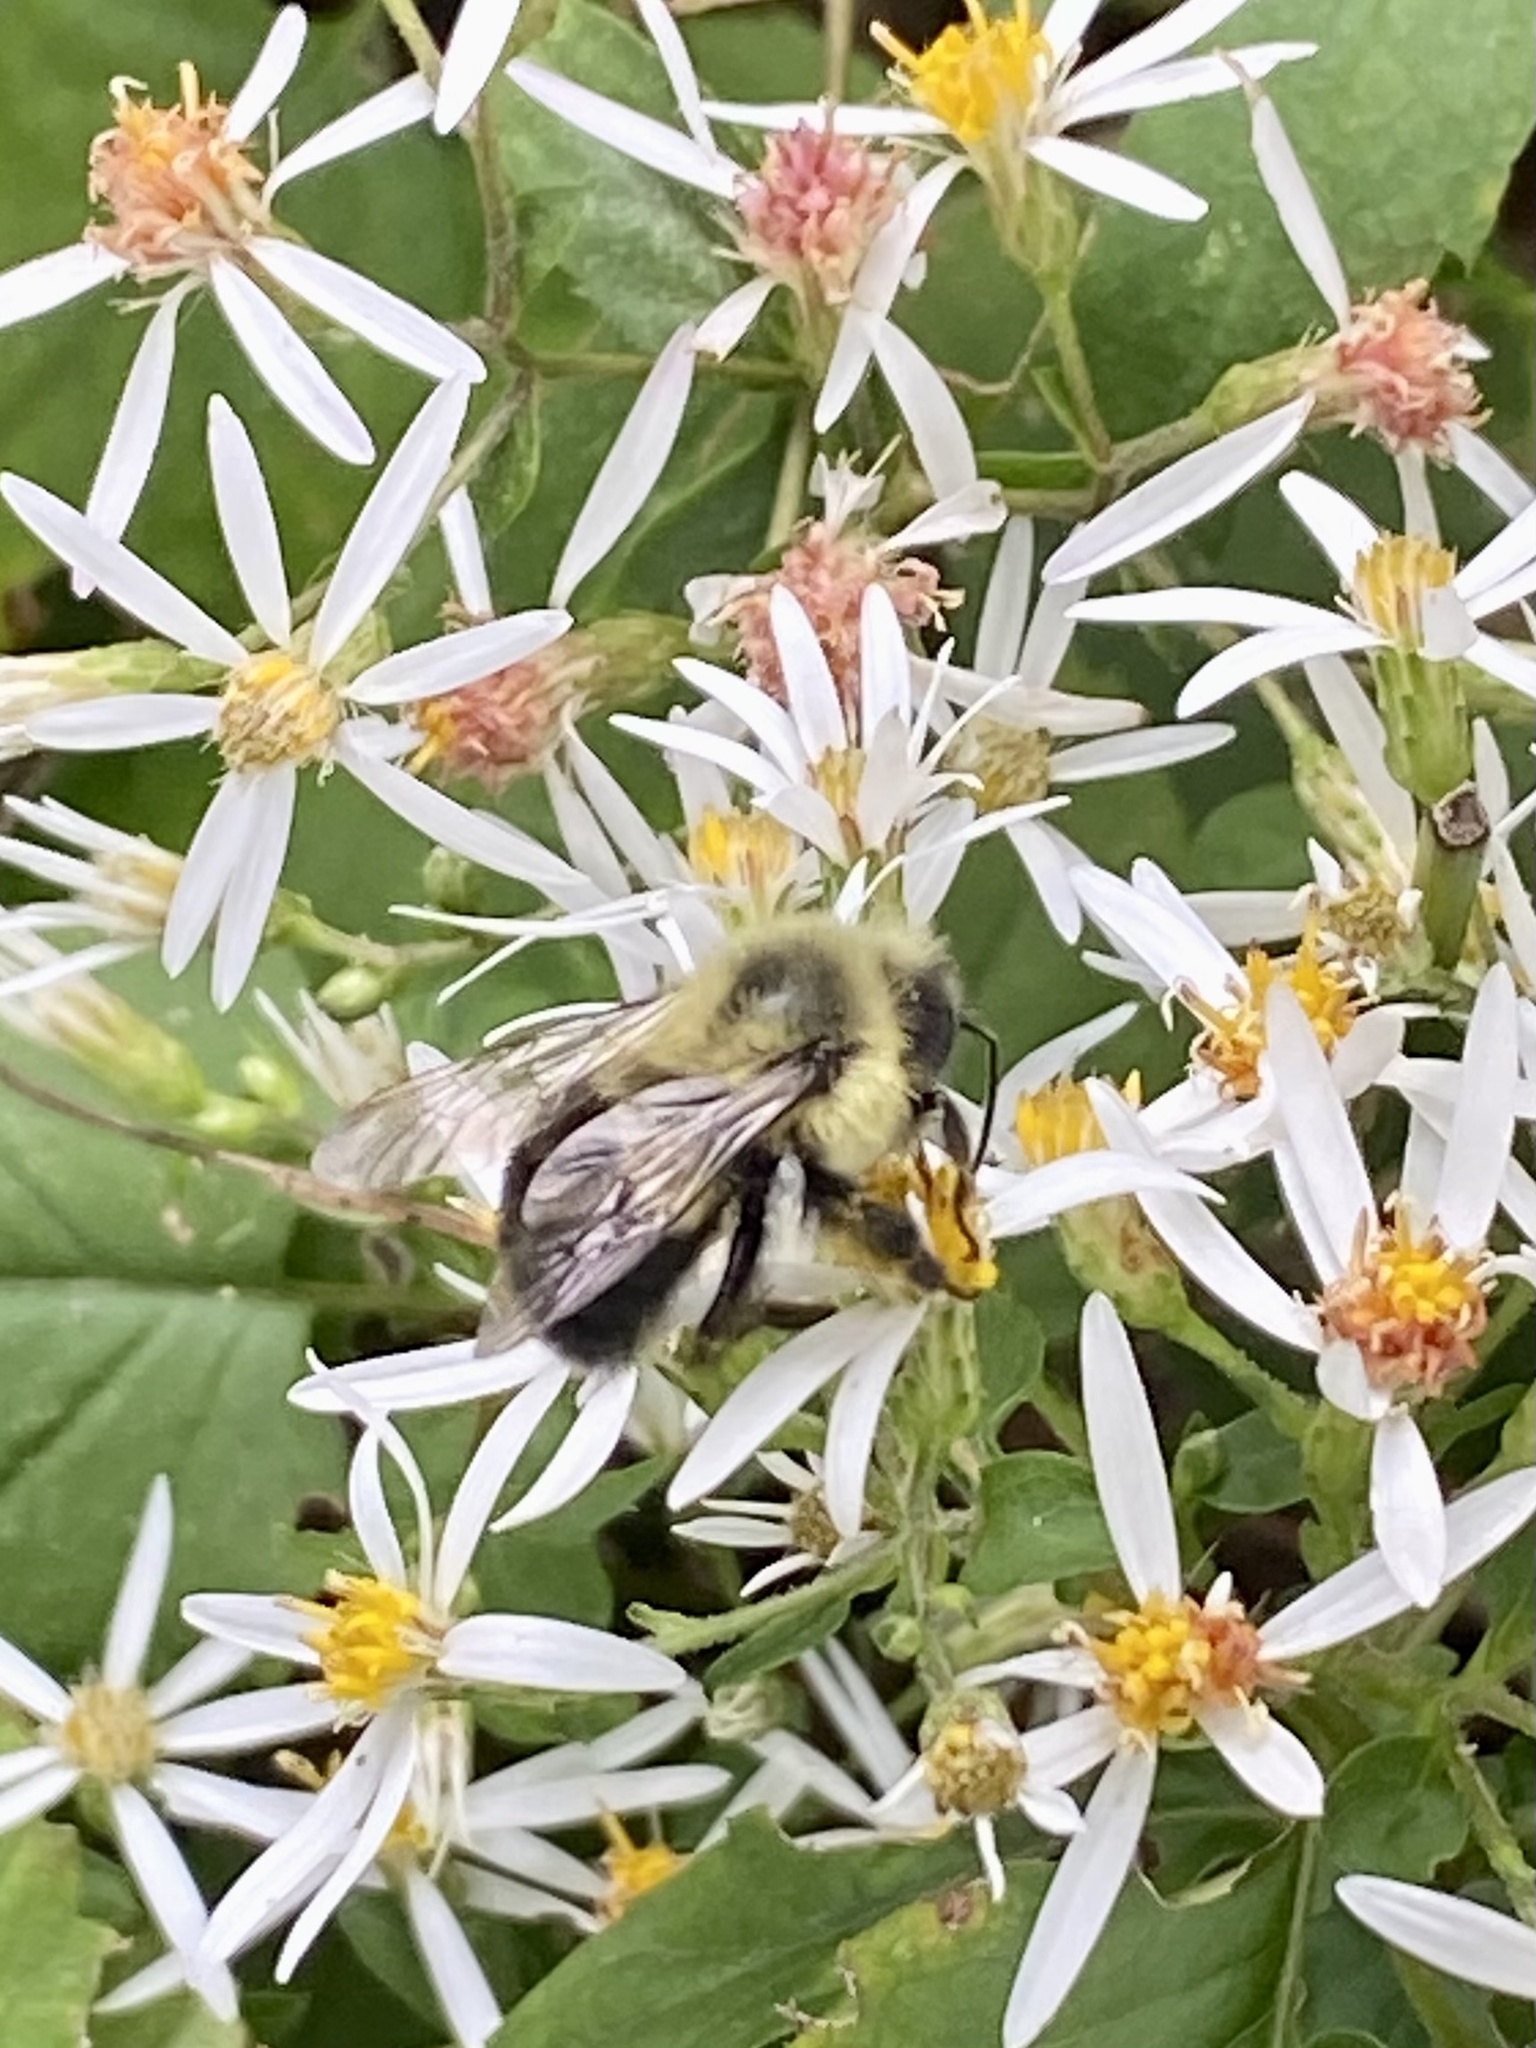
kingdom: Animalia
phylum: Arthropoda
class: Insecta
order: Hymenoptera
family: Apidae
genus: Bombus
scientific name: Bombus impatiens
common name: Common eastern bumble bee
